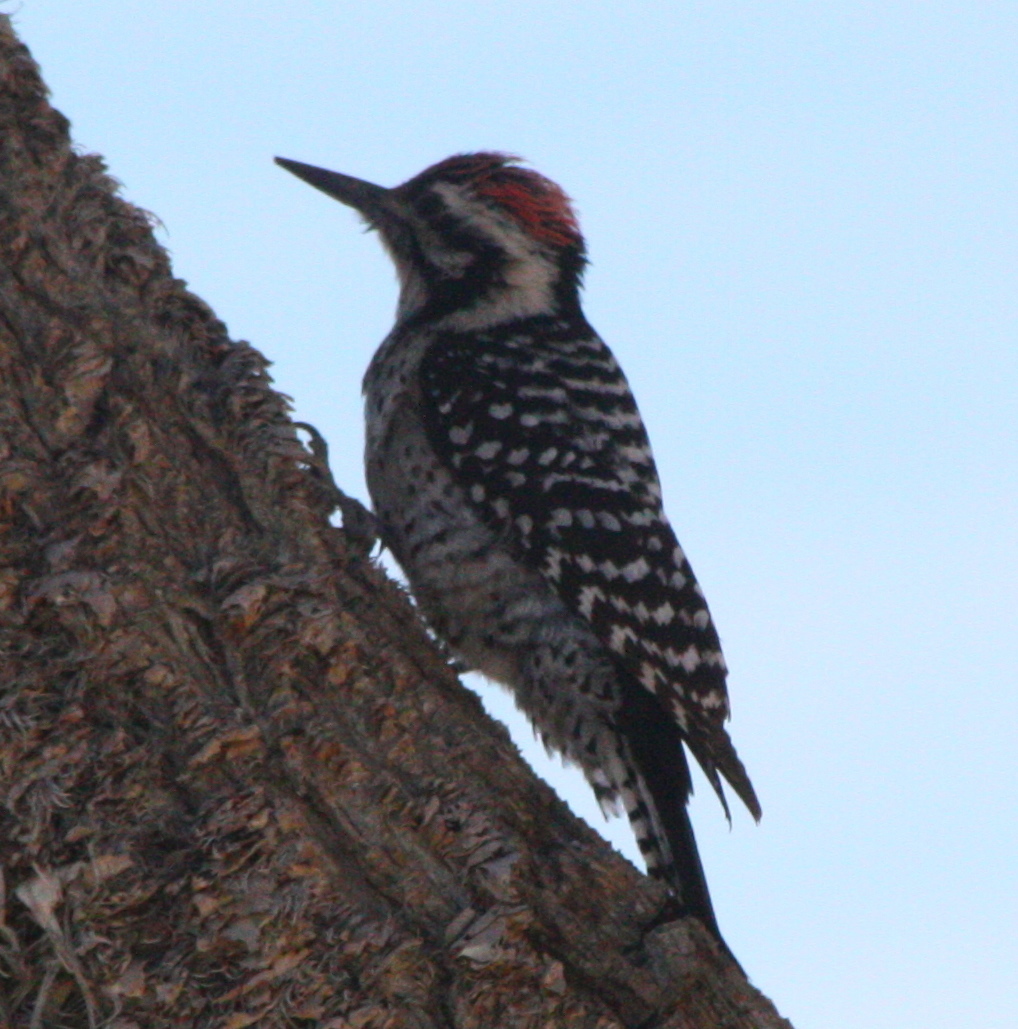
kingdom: Animalia
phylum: Chordata
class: Aves
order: Piciformes
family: Picidae
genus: Dryobates
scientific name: Dryobates scalaris
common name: Ladder-backed woodpecker
